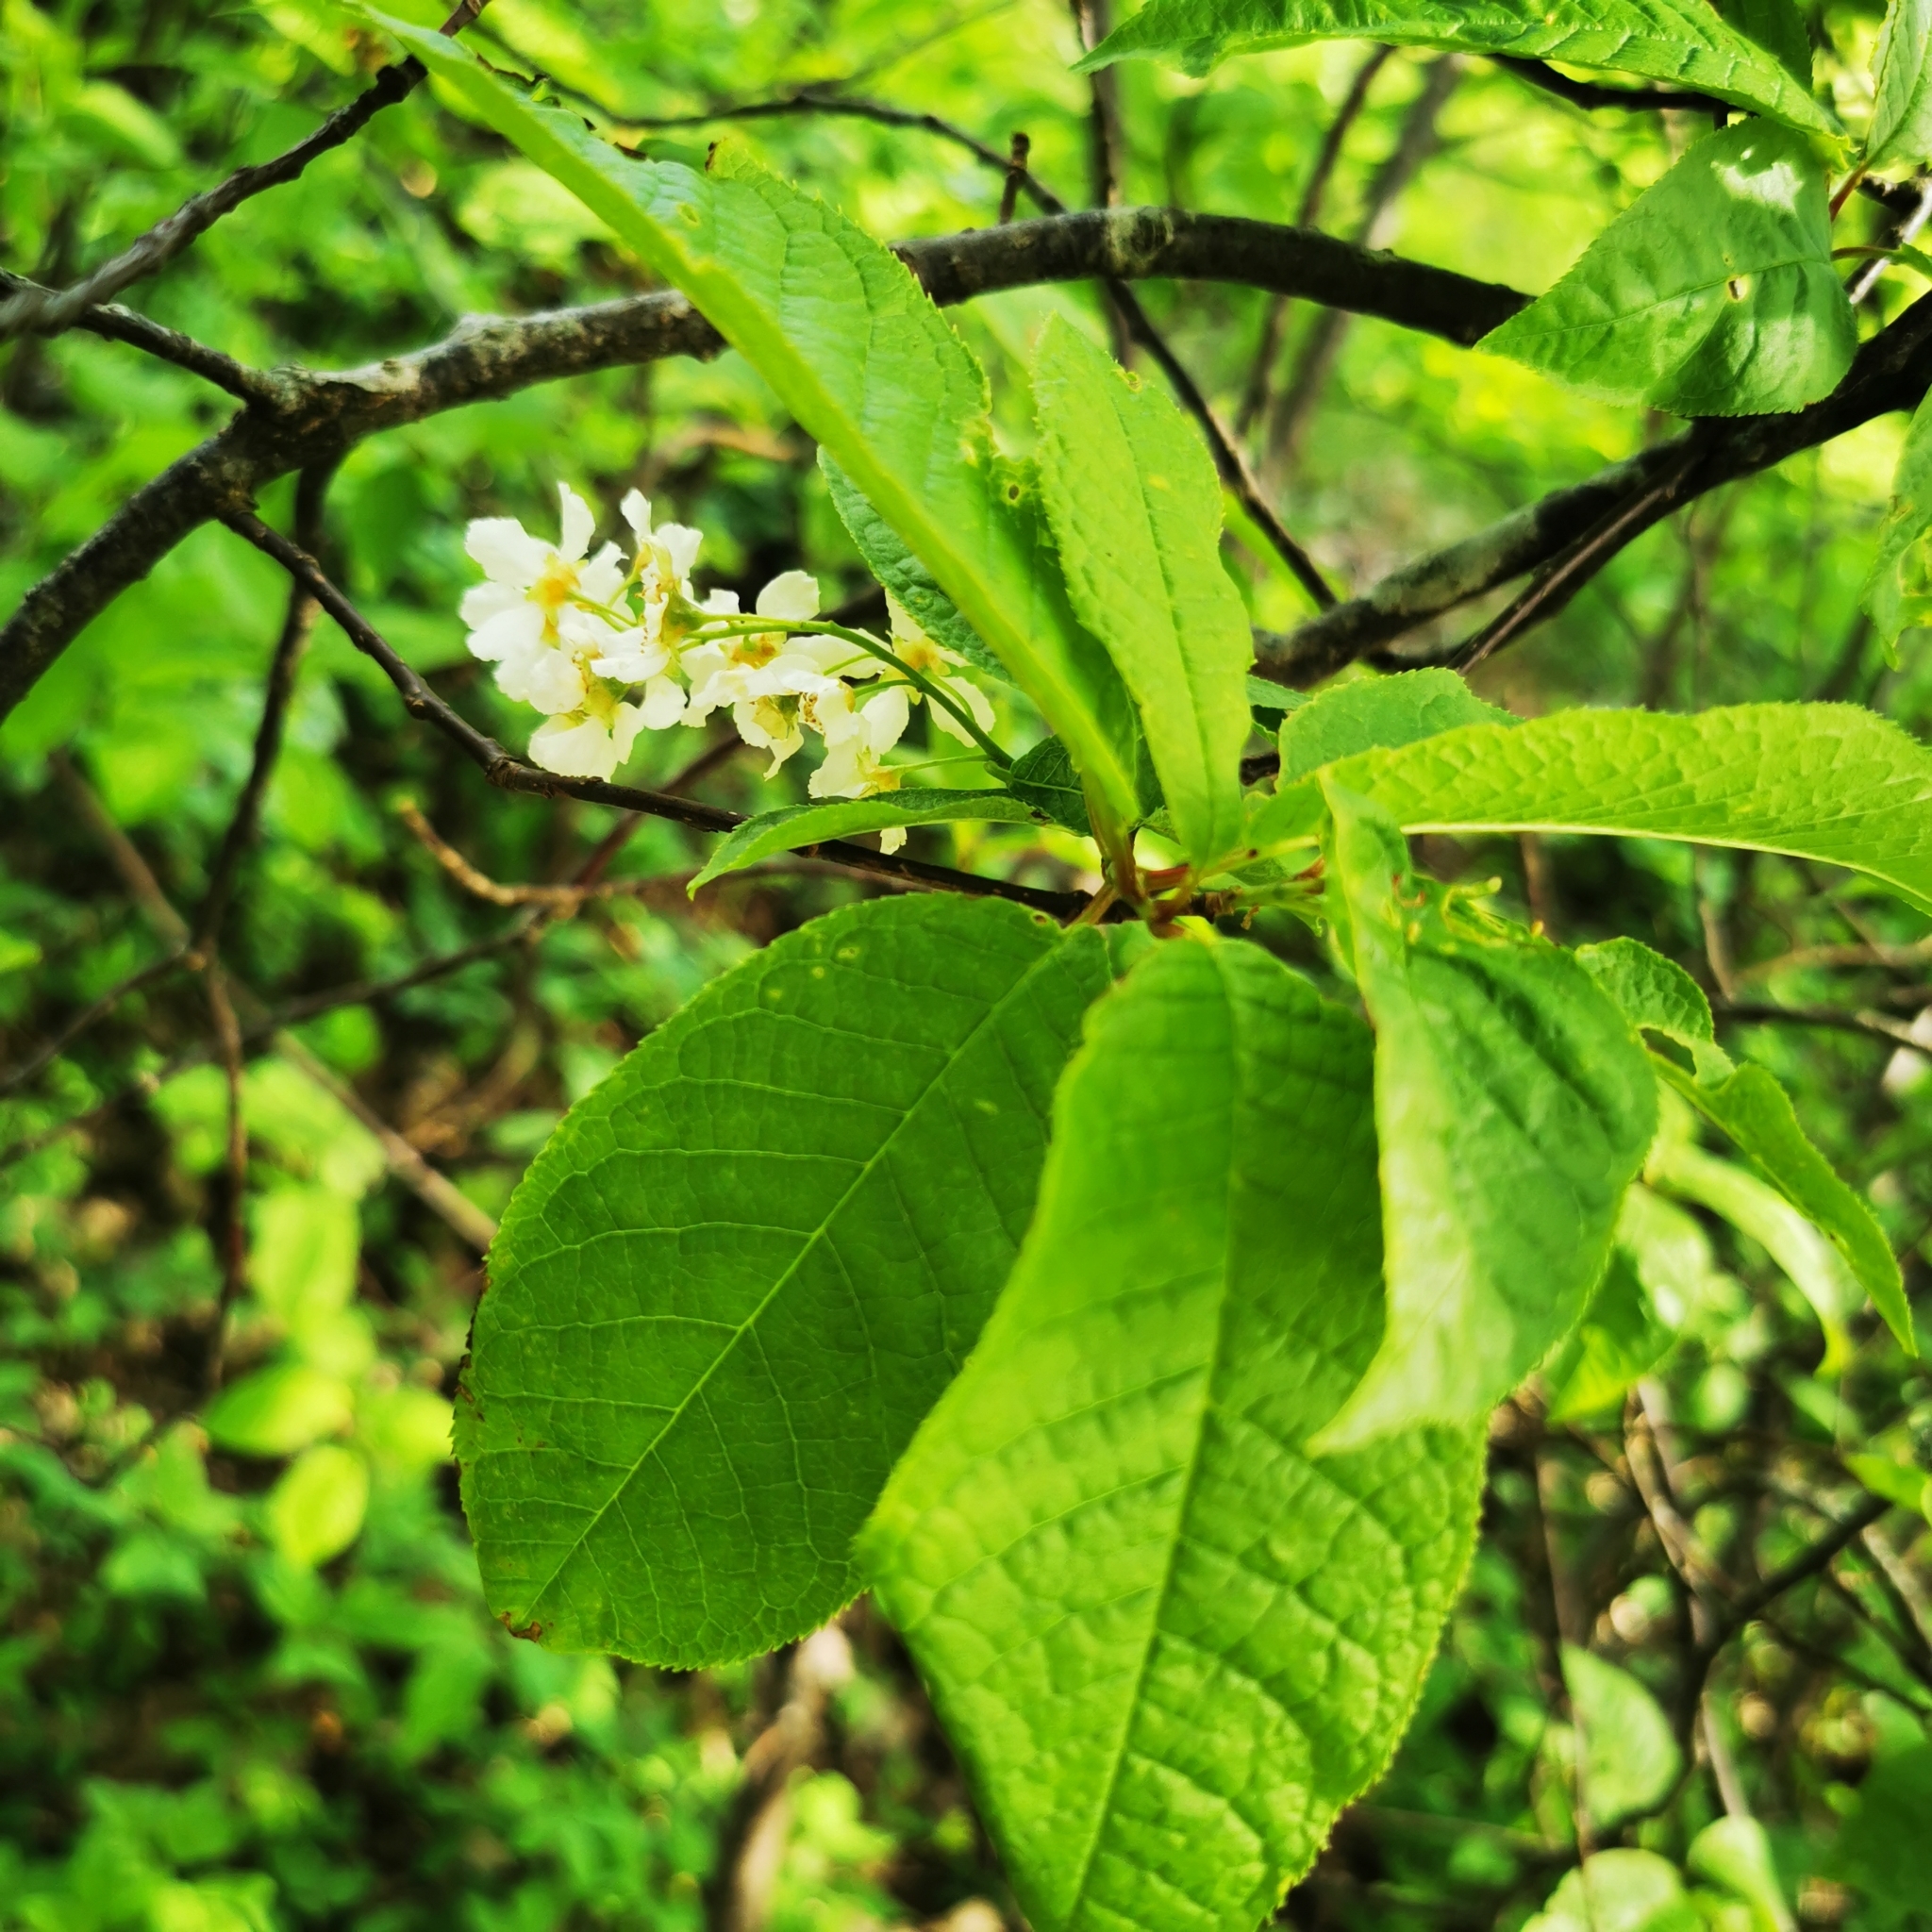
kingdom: Plantae
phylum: Tracheophyta
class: Magnoliopsida
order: Rosales
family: Rosaceae
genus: Prunus
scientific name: Prunus padus
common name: Bird cherry
